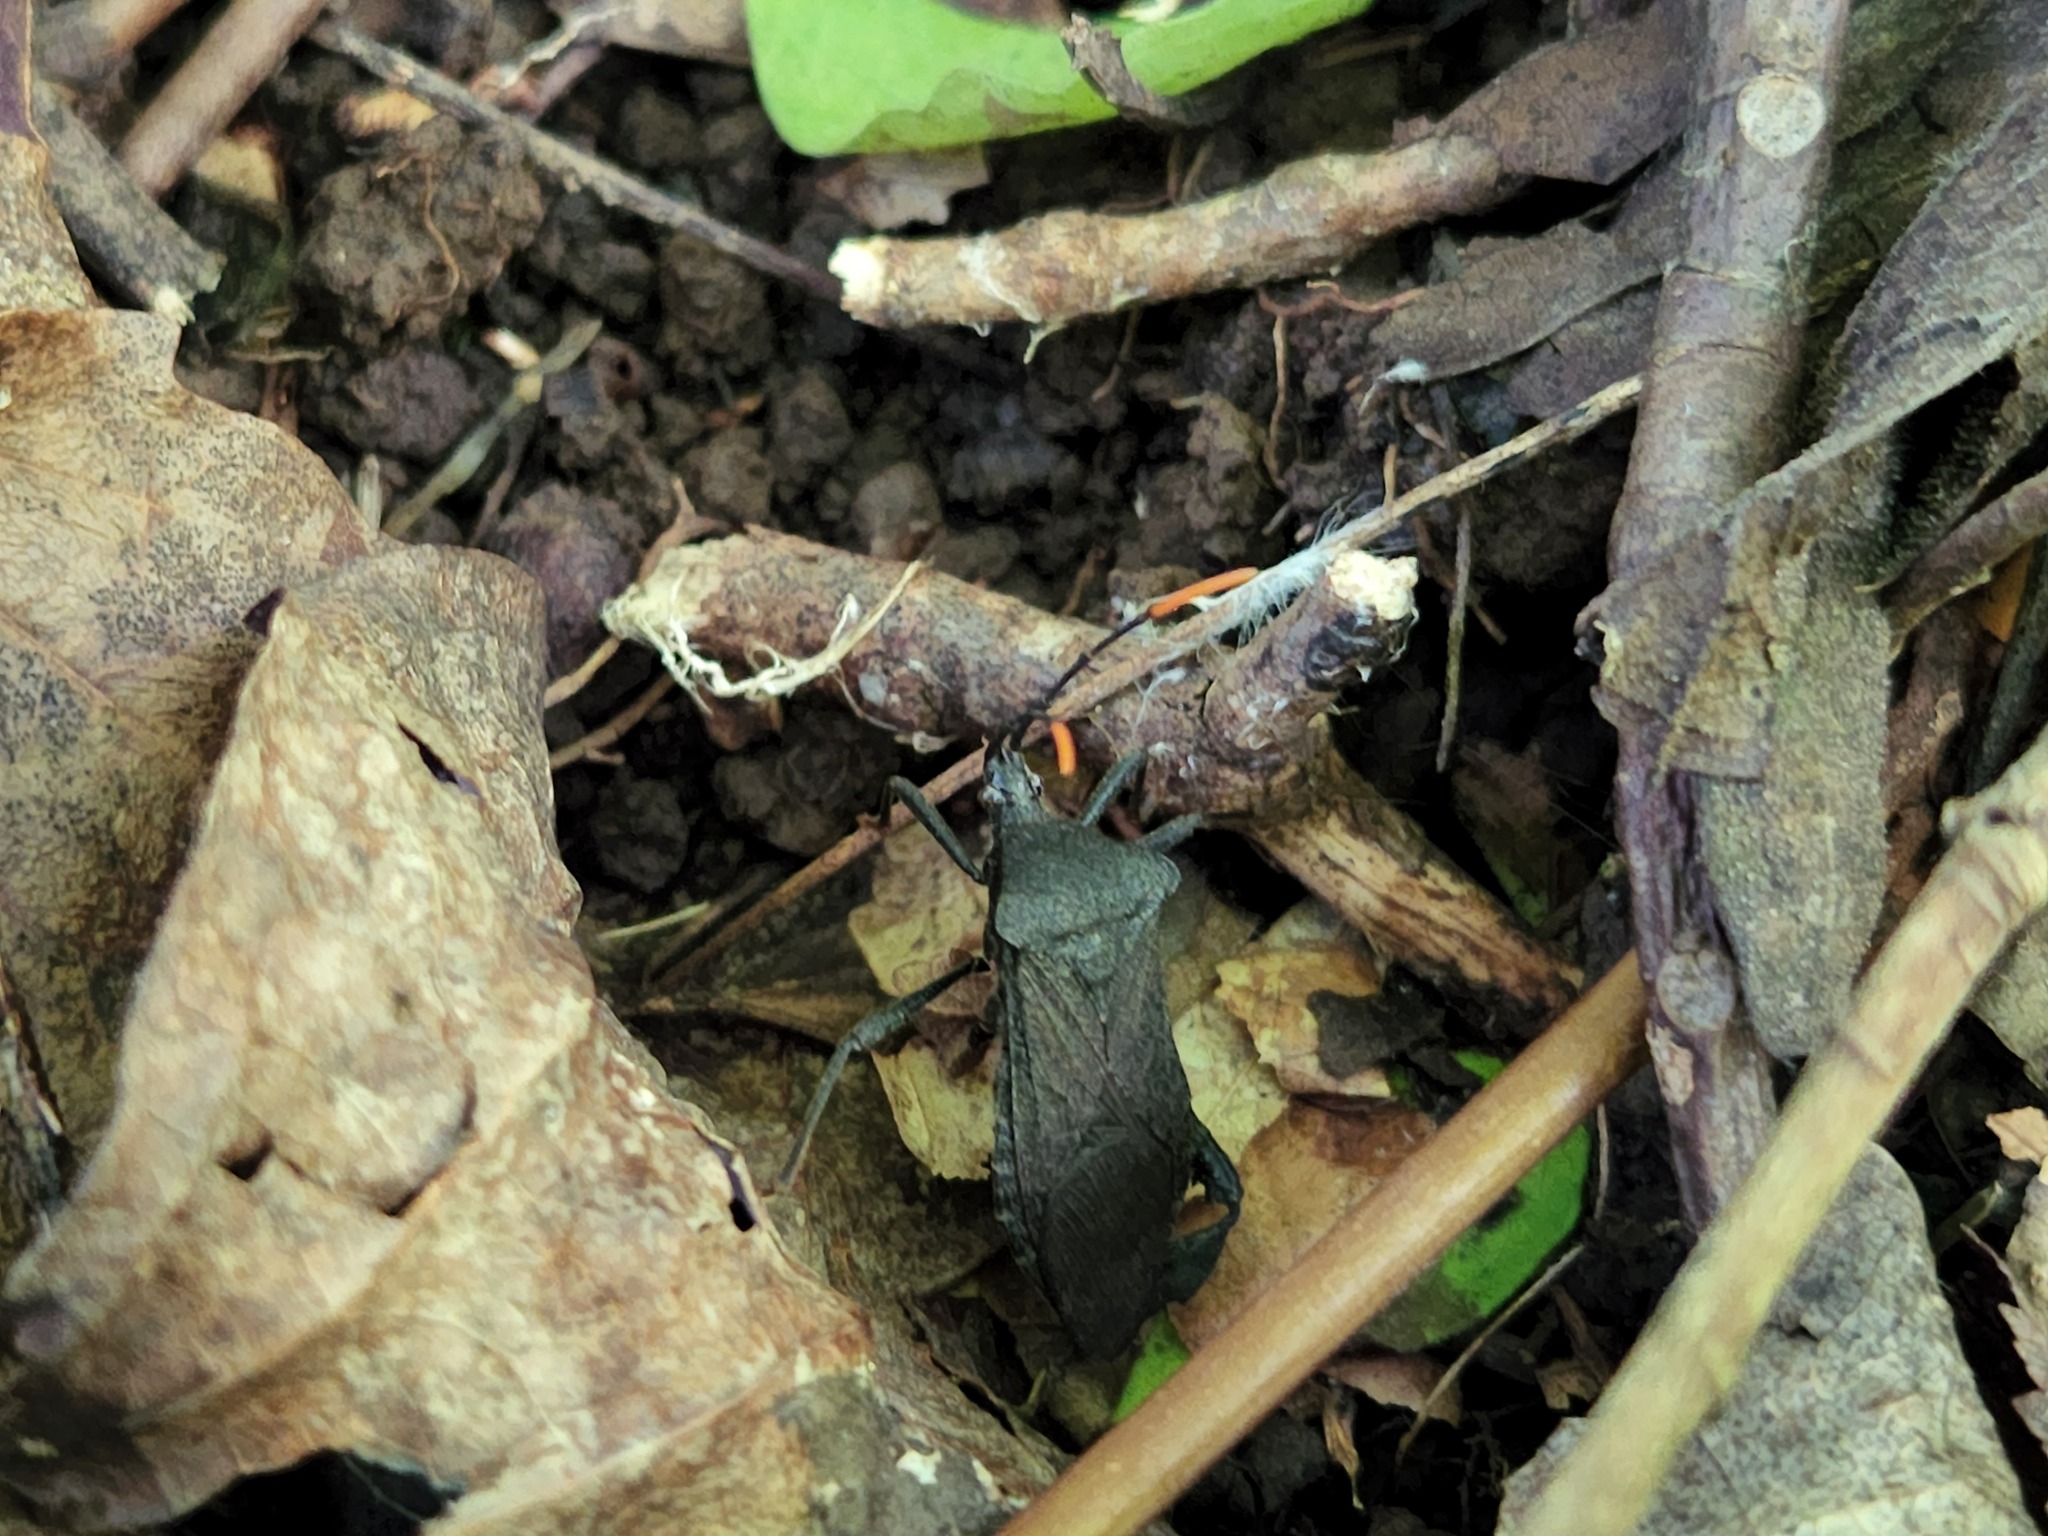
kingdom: Animalia
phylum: Arthropoda
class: Insecta
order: Hemiptera
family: Coreidae
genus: Acanthocephala
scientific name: Acanthocephala terminalis
